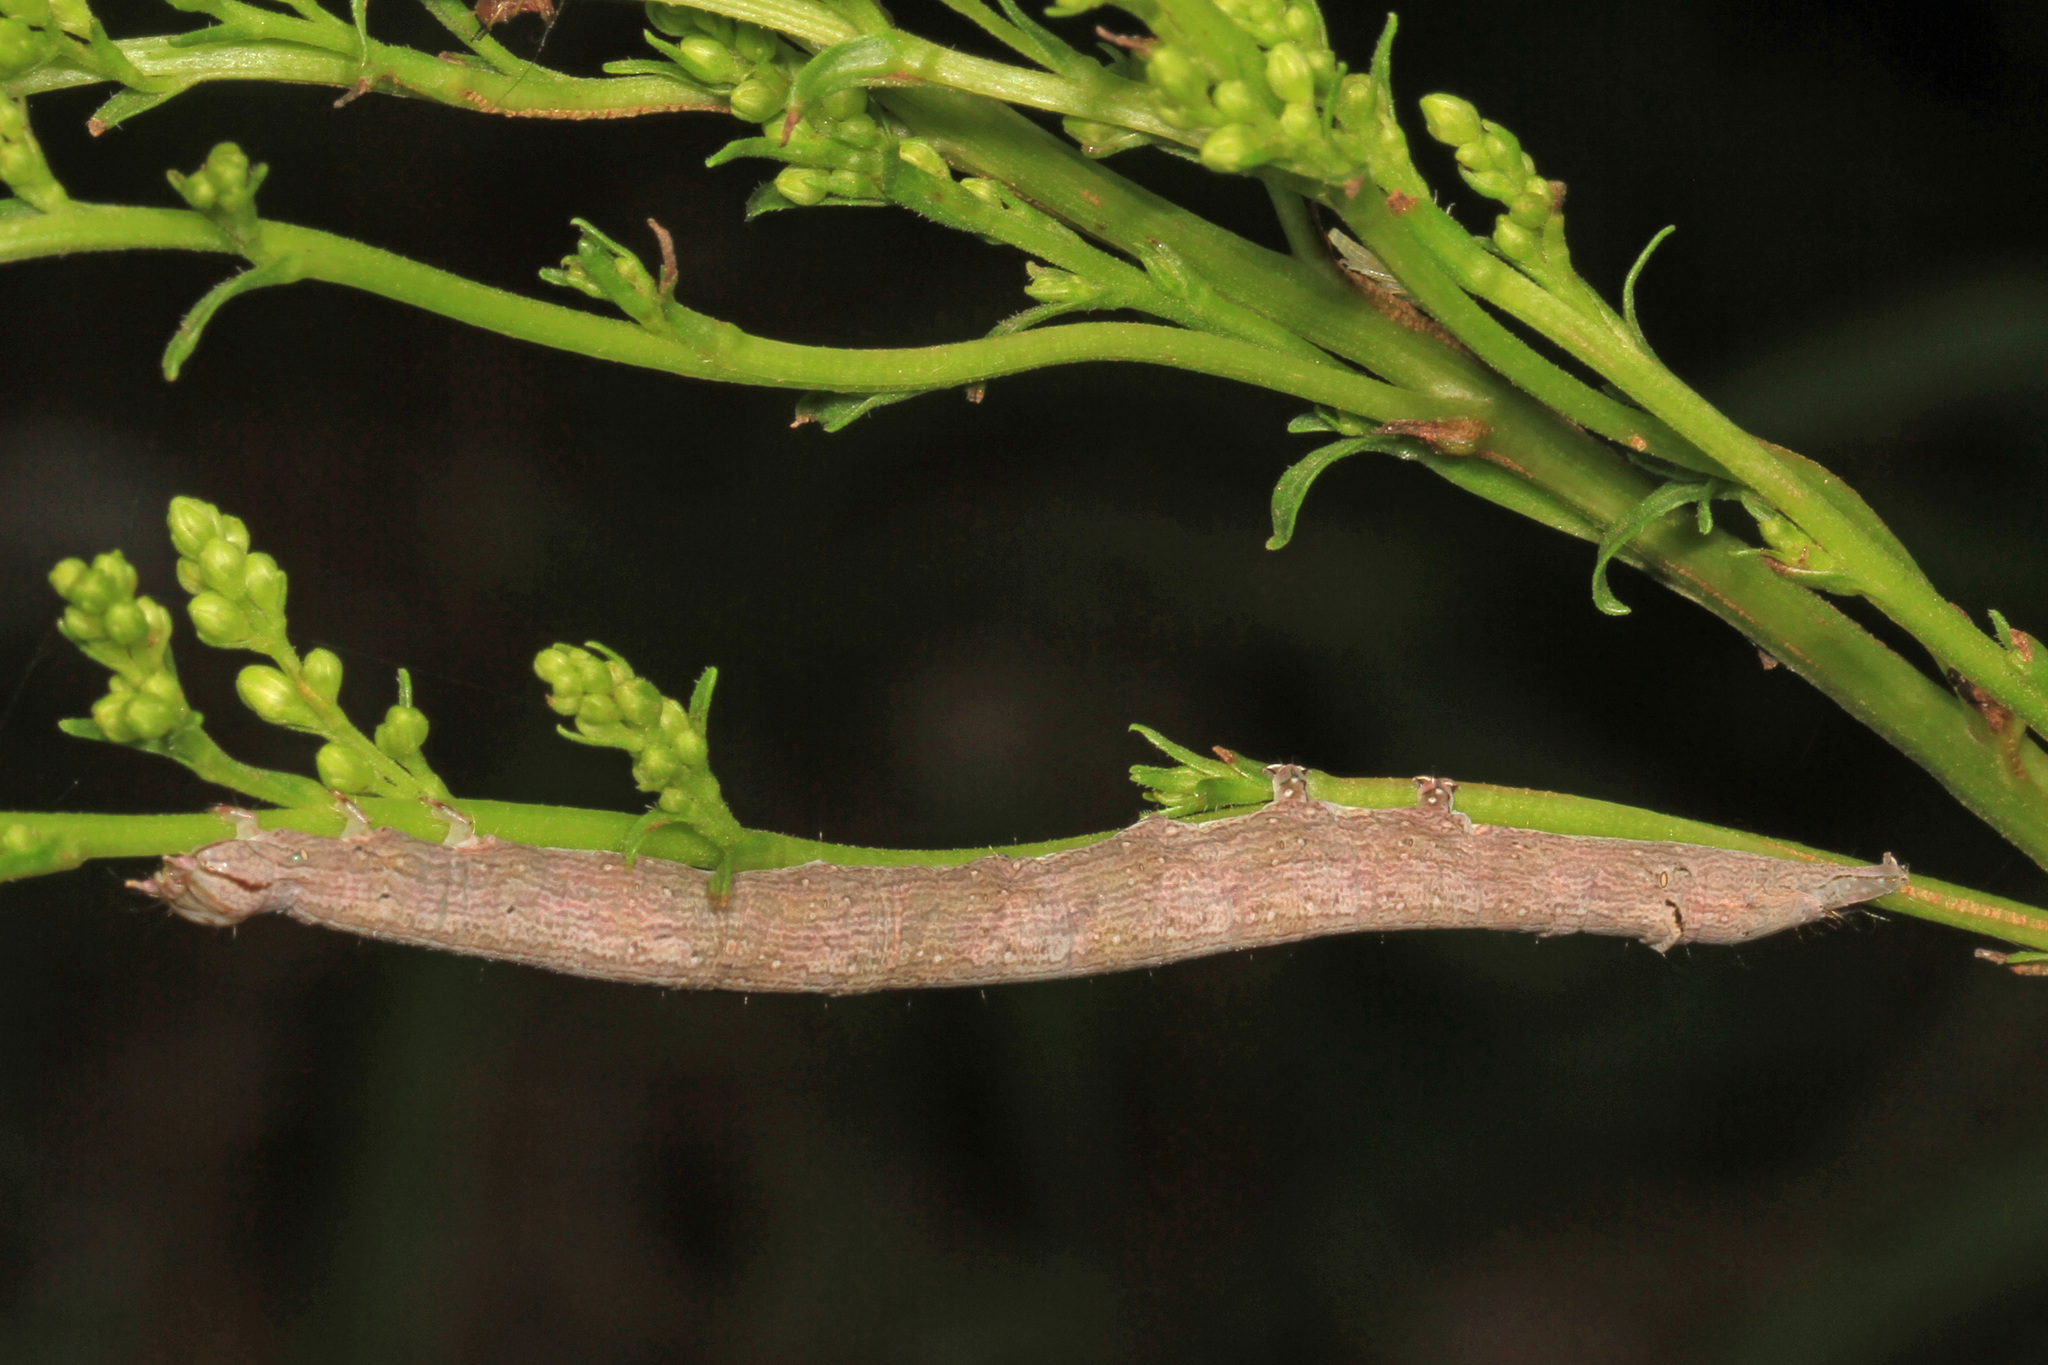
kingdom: Animalia
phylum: Arthropoda
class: Insecta
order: Lepidoptera
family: Erebidae
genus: Zale
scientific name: Zale lunata
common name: Lunate zale moth
